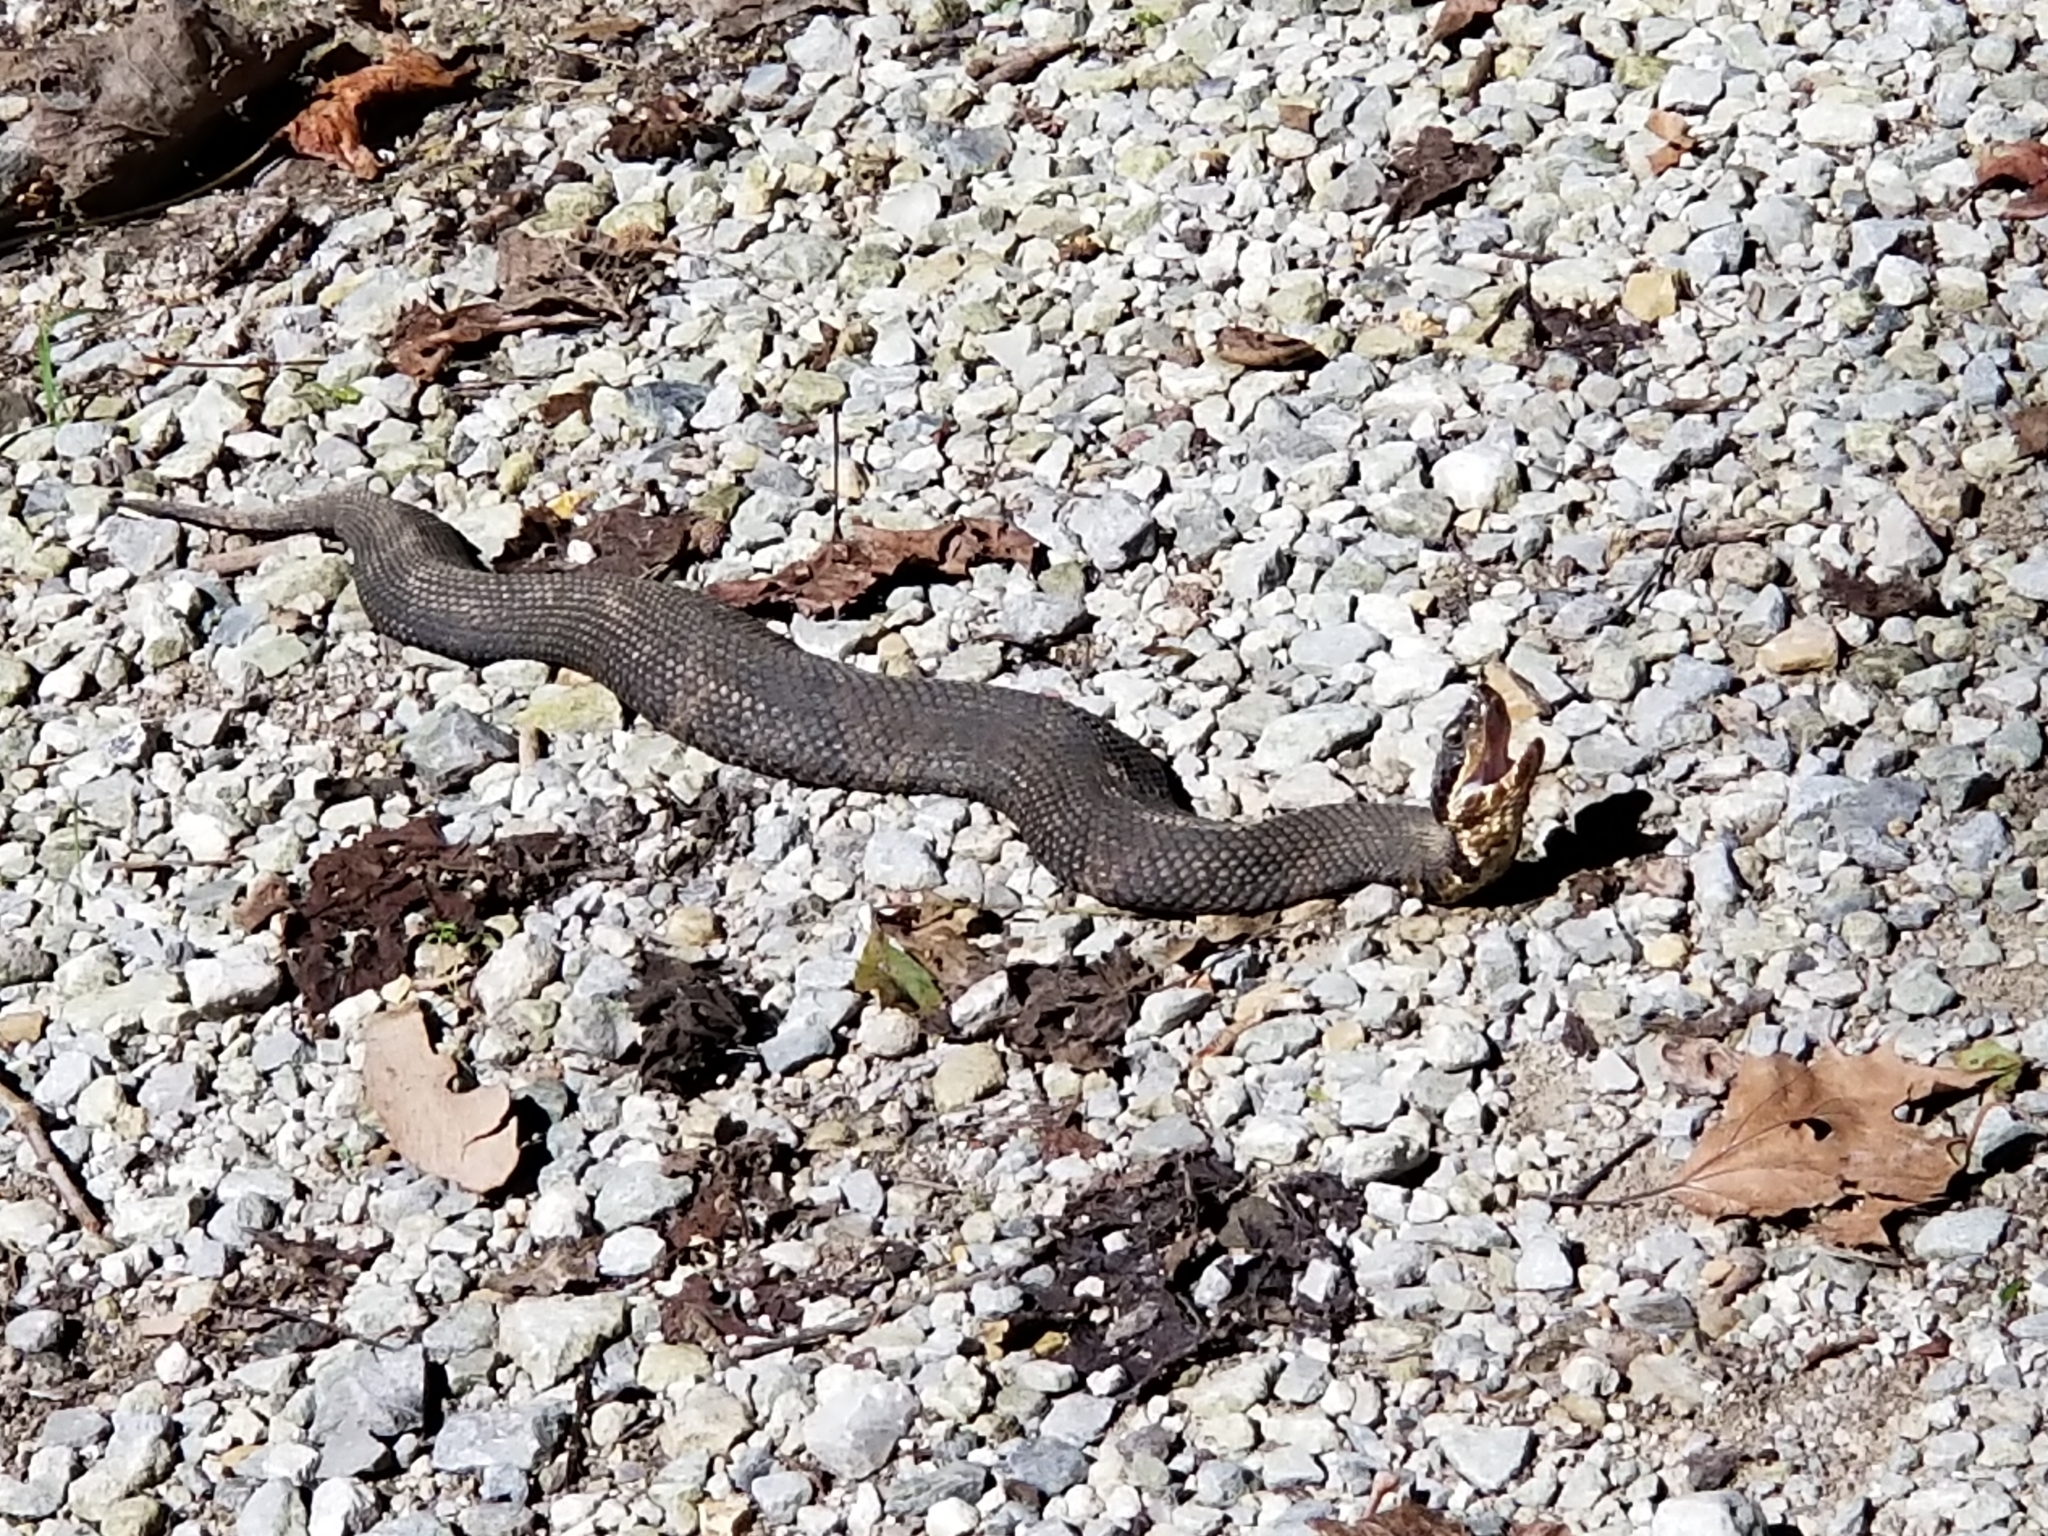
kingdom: Animalia
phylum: Chordata
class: Squamata
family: Viperidae
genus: Agkistrodon
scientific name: Agkistrodon piscivorus
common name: Cottonmouth
